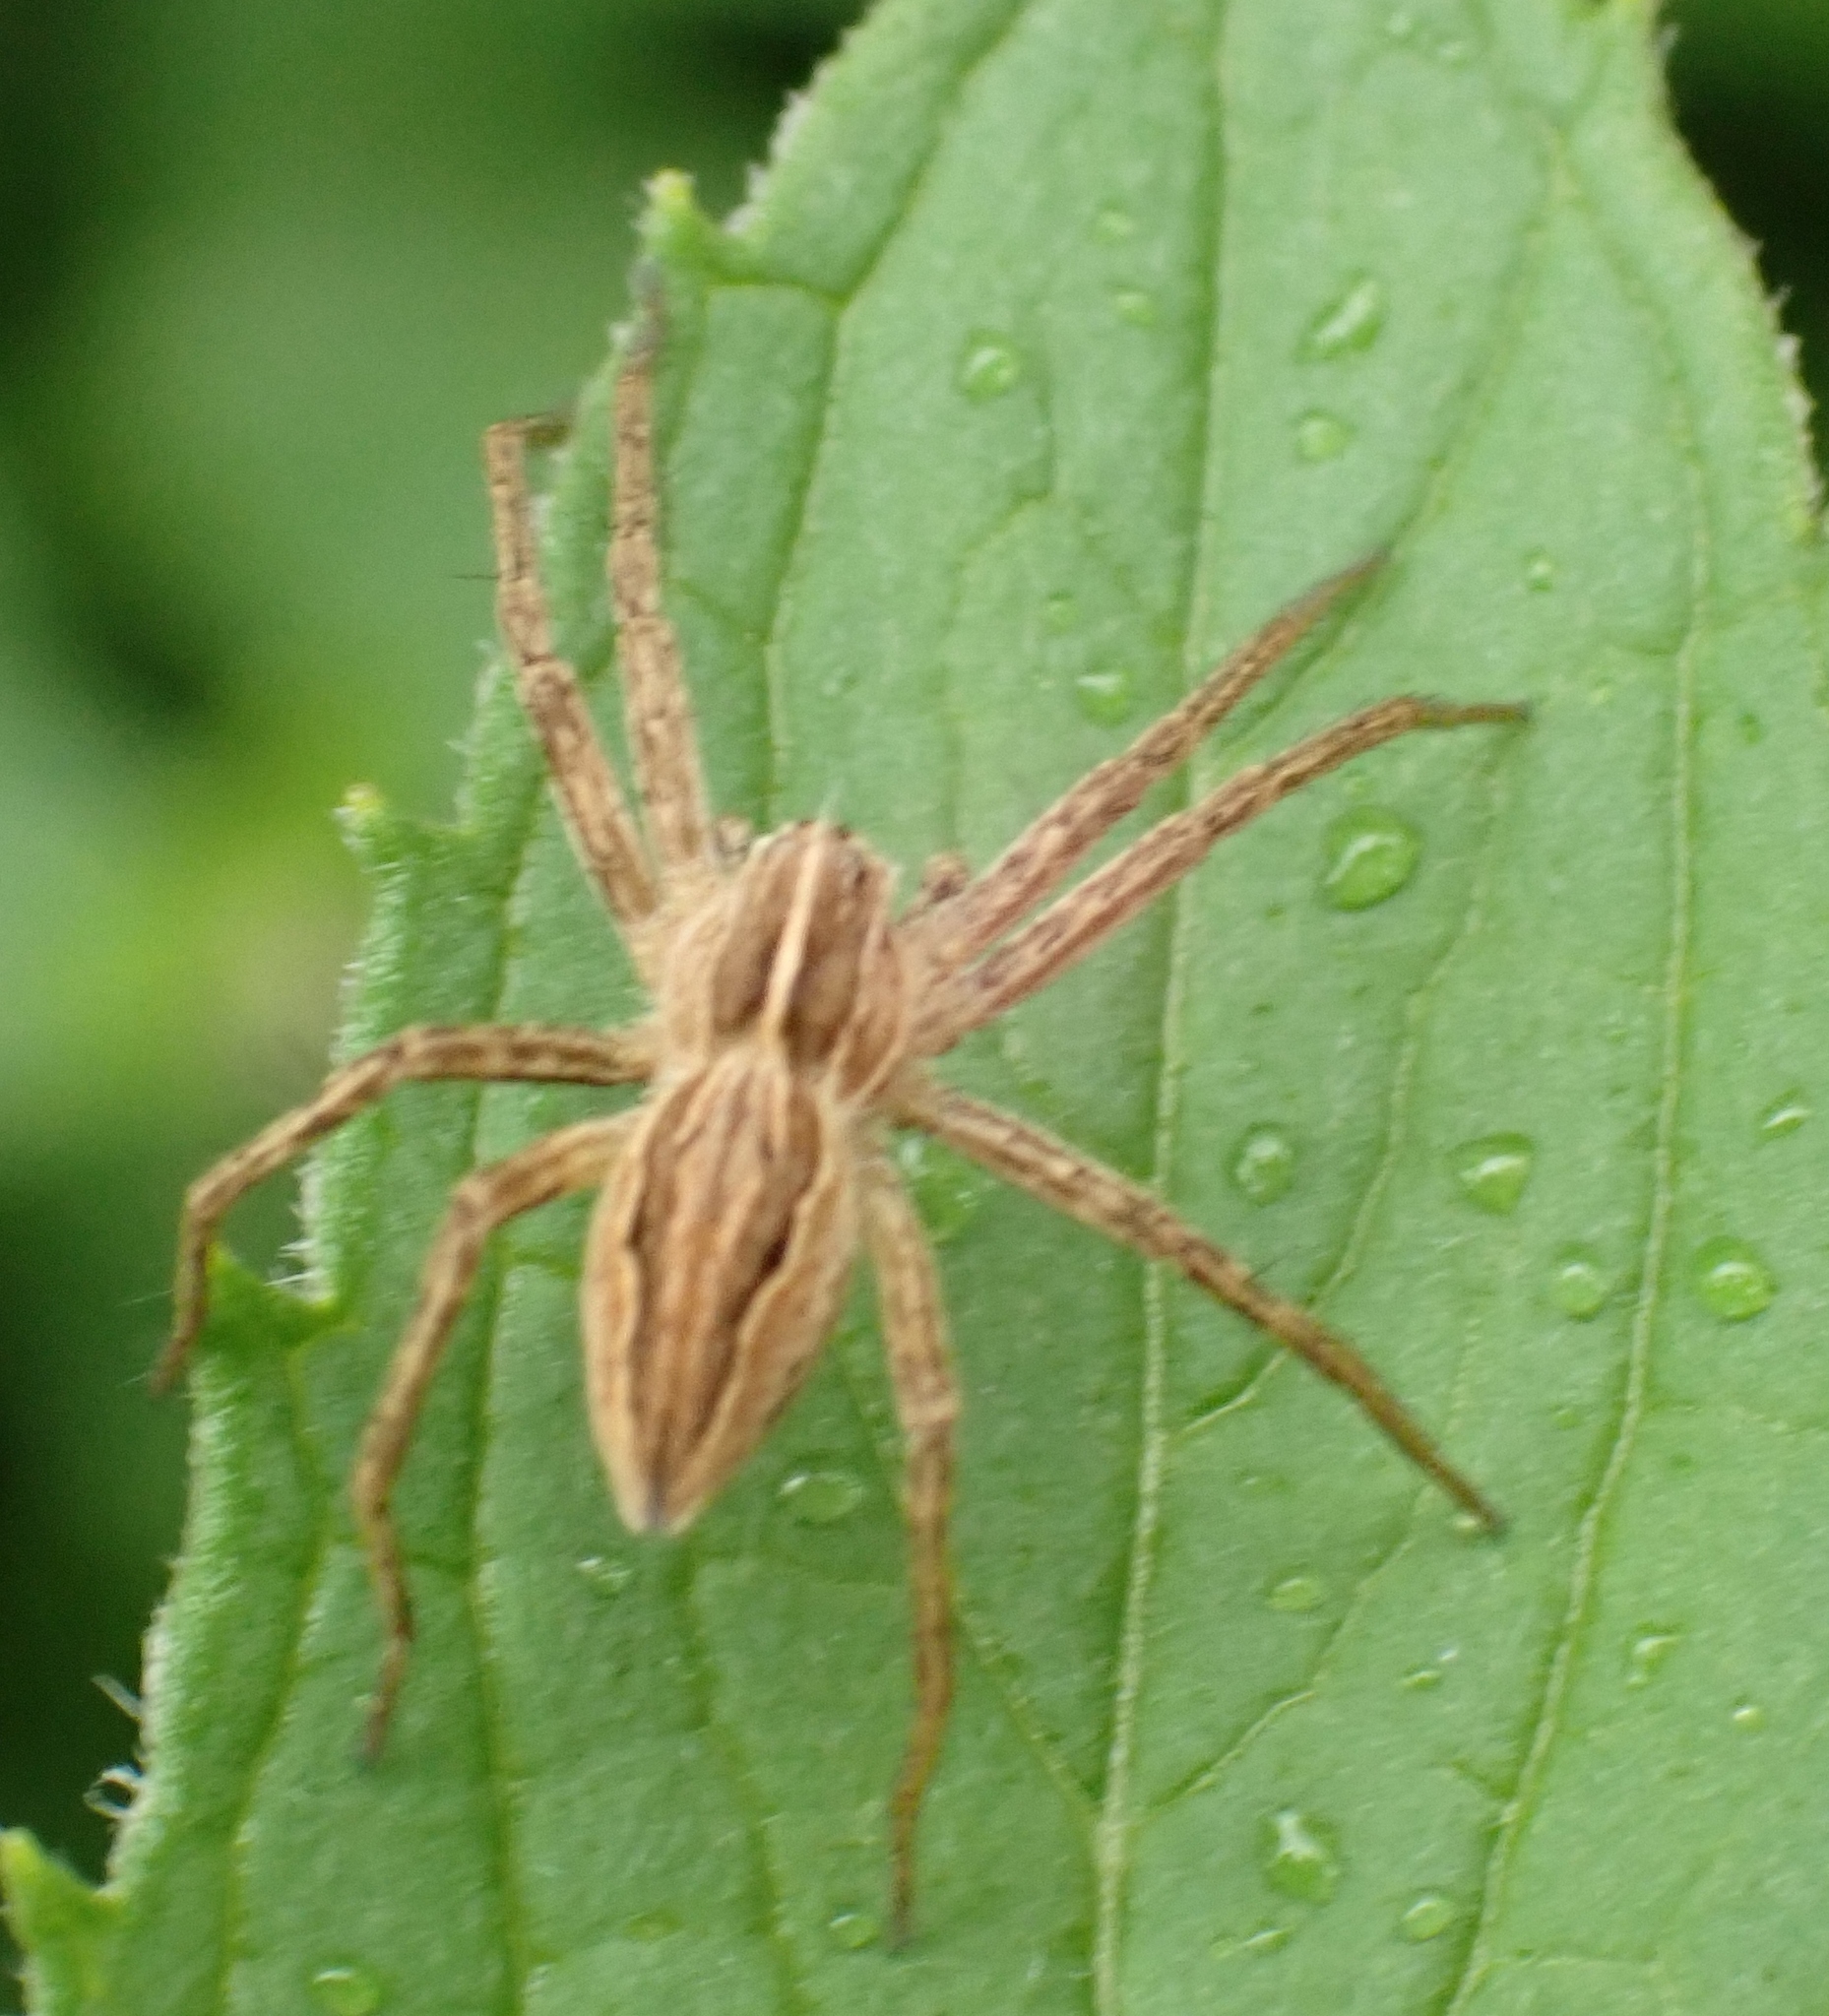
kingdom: Animalia
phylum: Arthropoda
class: Arachnida
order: Araneae
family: Pisauridae
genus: Pisaura
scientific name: Pisaura mirabilis
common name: Tent spider
